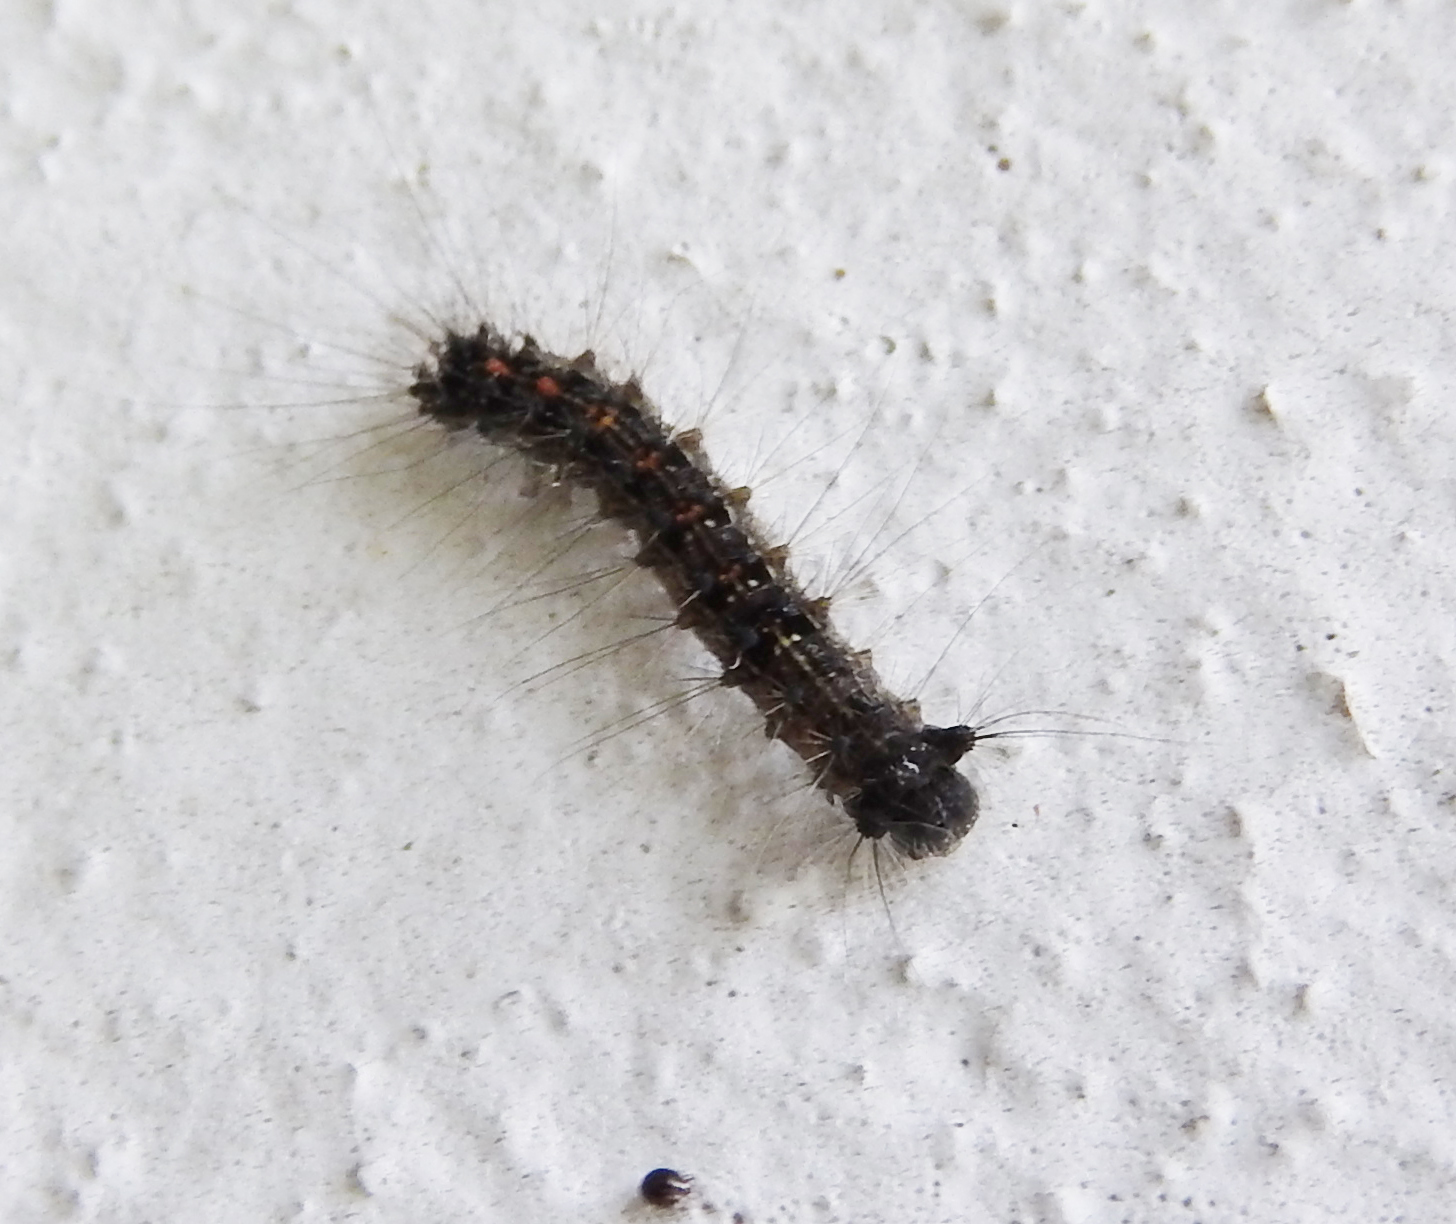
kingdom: Animalia
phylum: Arthropoda
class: Insecta
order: Lepidoptera
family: Erebidae
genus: Lymantria
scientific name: Lymantria dispar
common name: Gypsy moth
